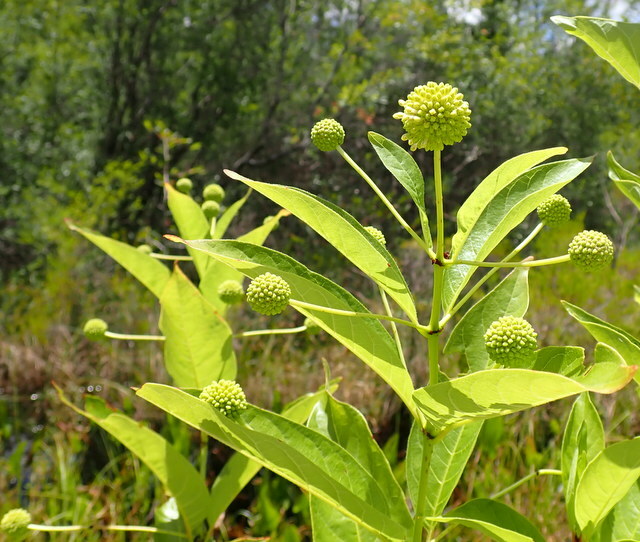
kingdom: Plantae
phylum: Tracheophyta
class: Magnoliopsida
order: Gentianales
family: Rubiaceae
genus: Cephalanthus
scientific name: Cephalanthus occidentalis
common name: Button-willow
